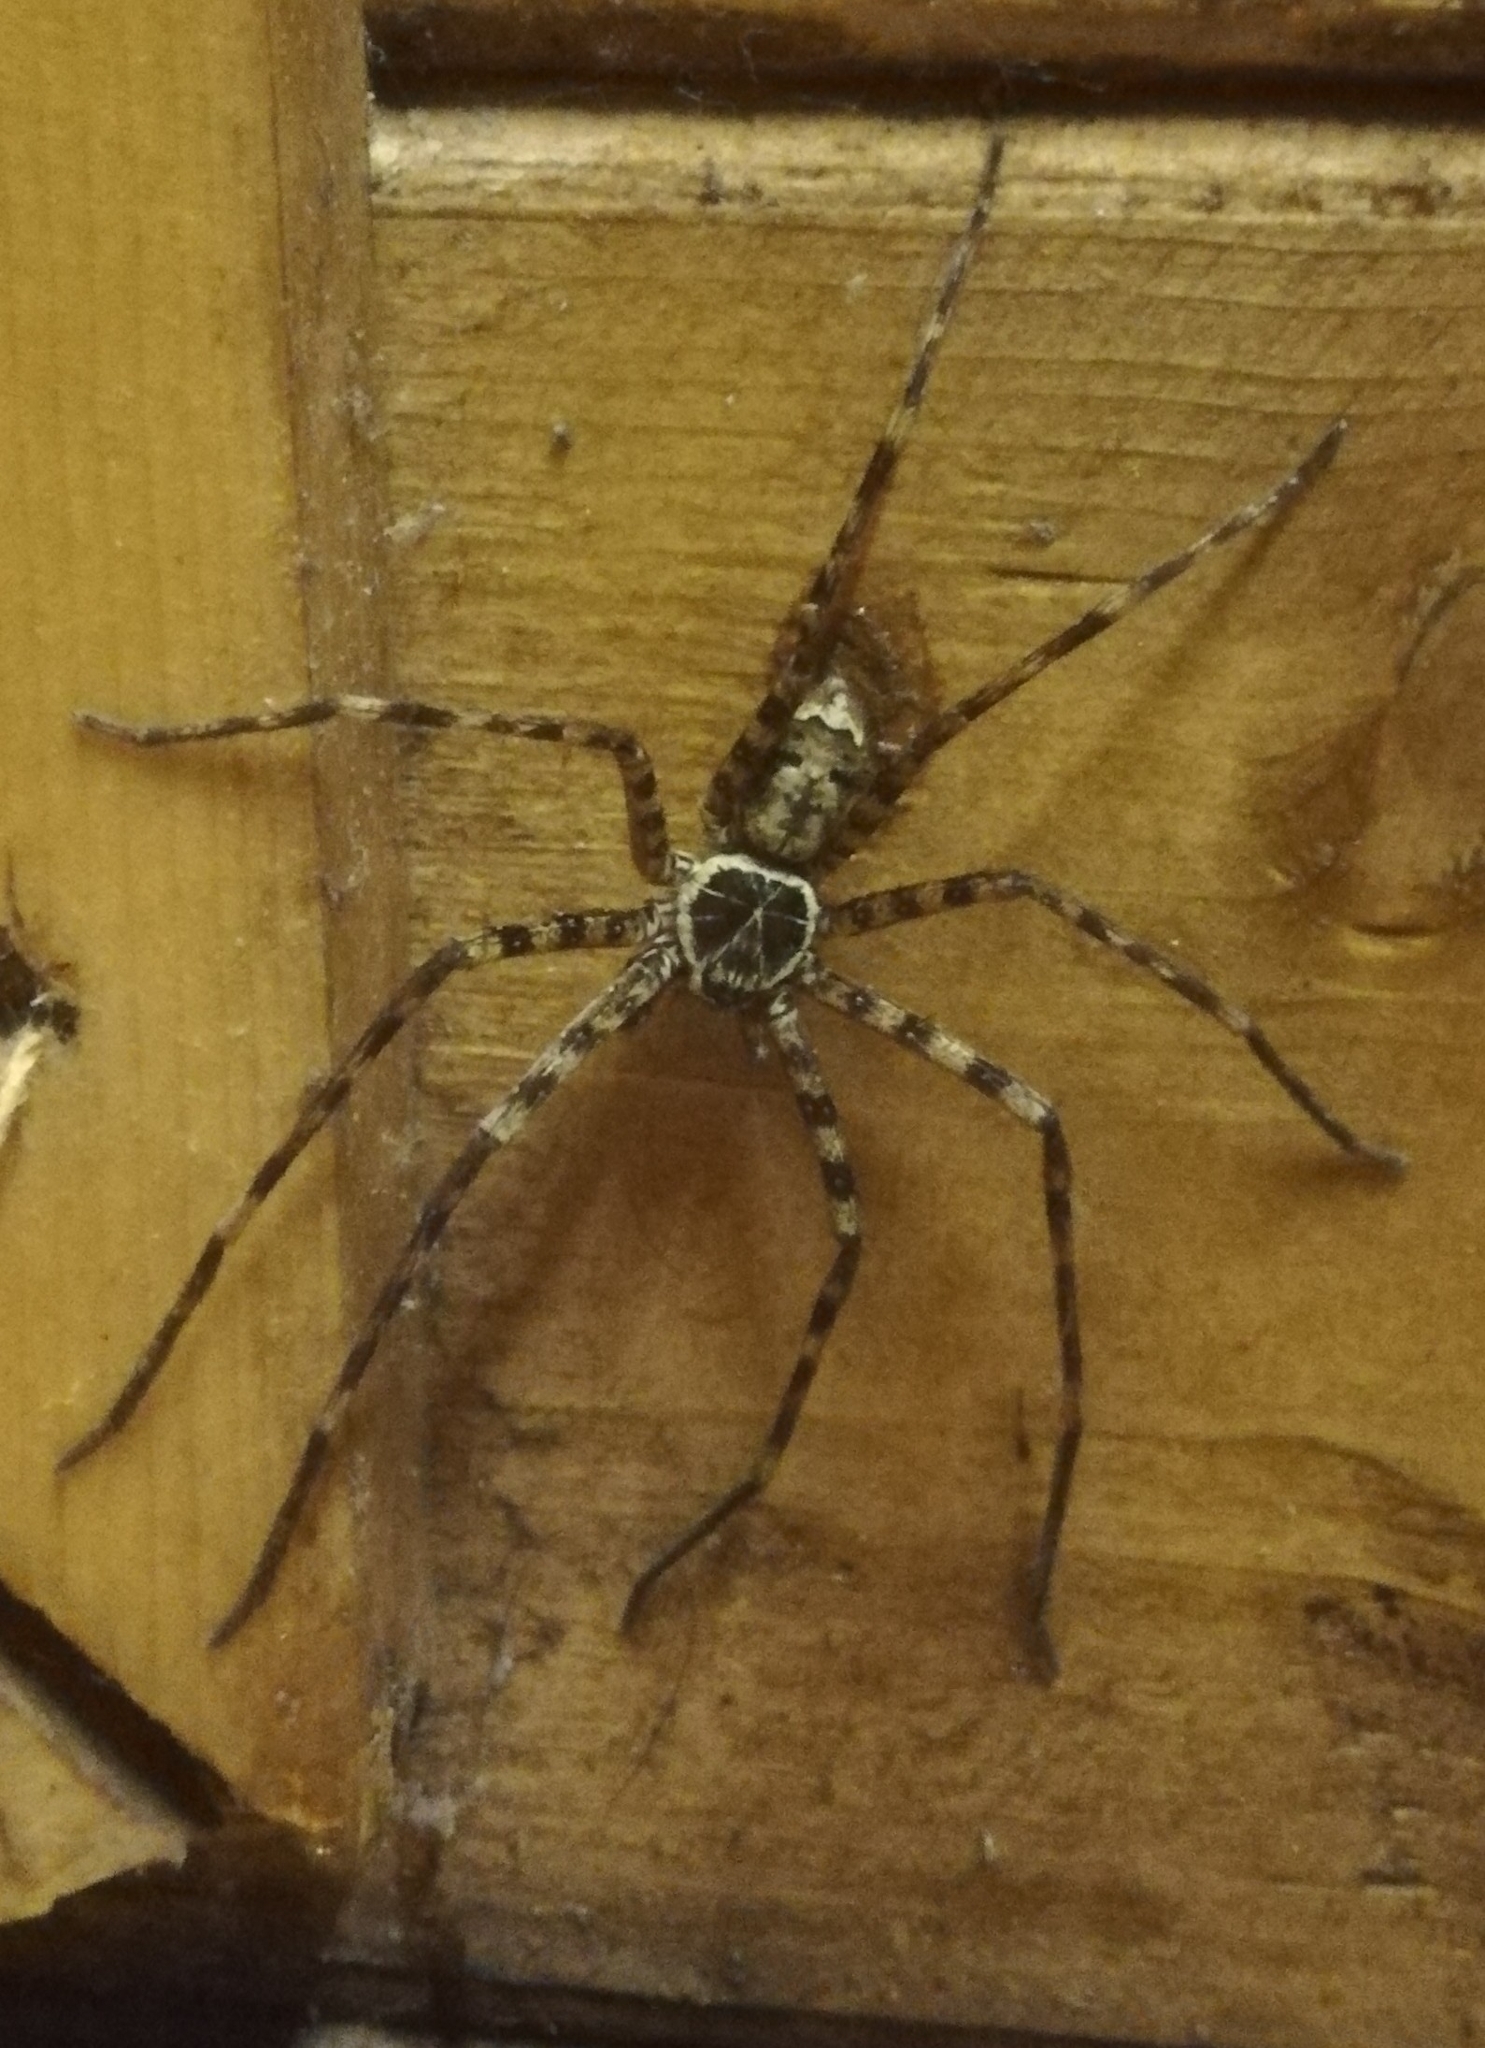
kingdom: Animalia
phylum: Arthropoda
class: Arachnida
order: Araneae
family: Sparassidae
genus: Heteropoda
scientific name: Heteropoda venatoria
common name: Huntsman spider
